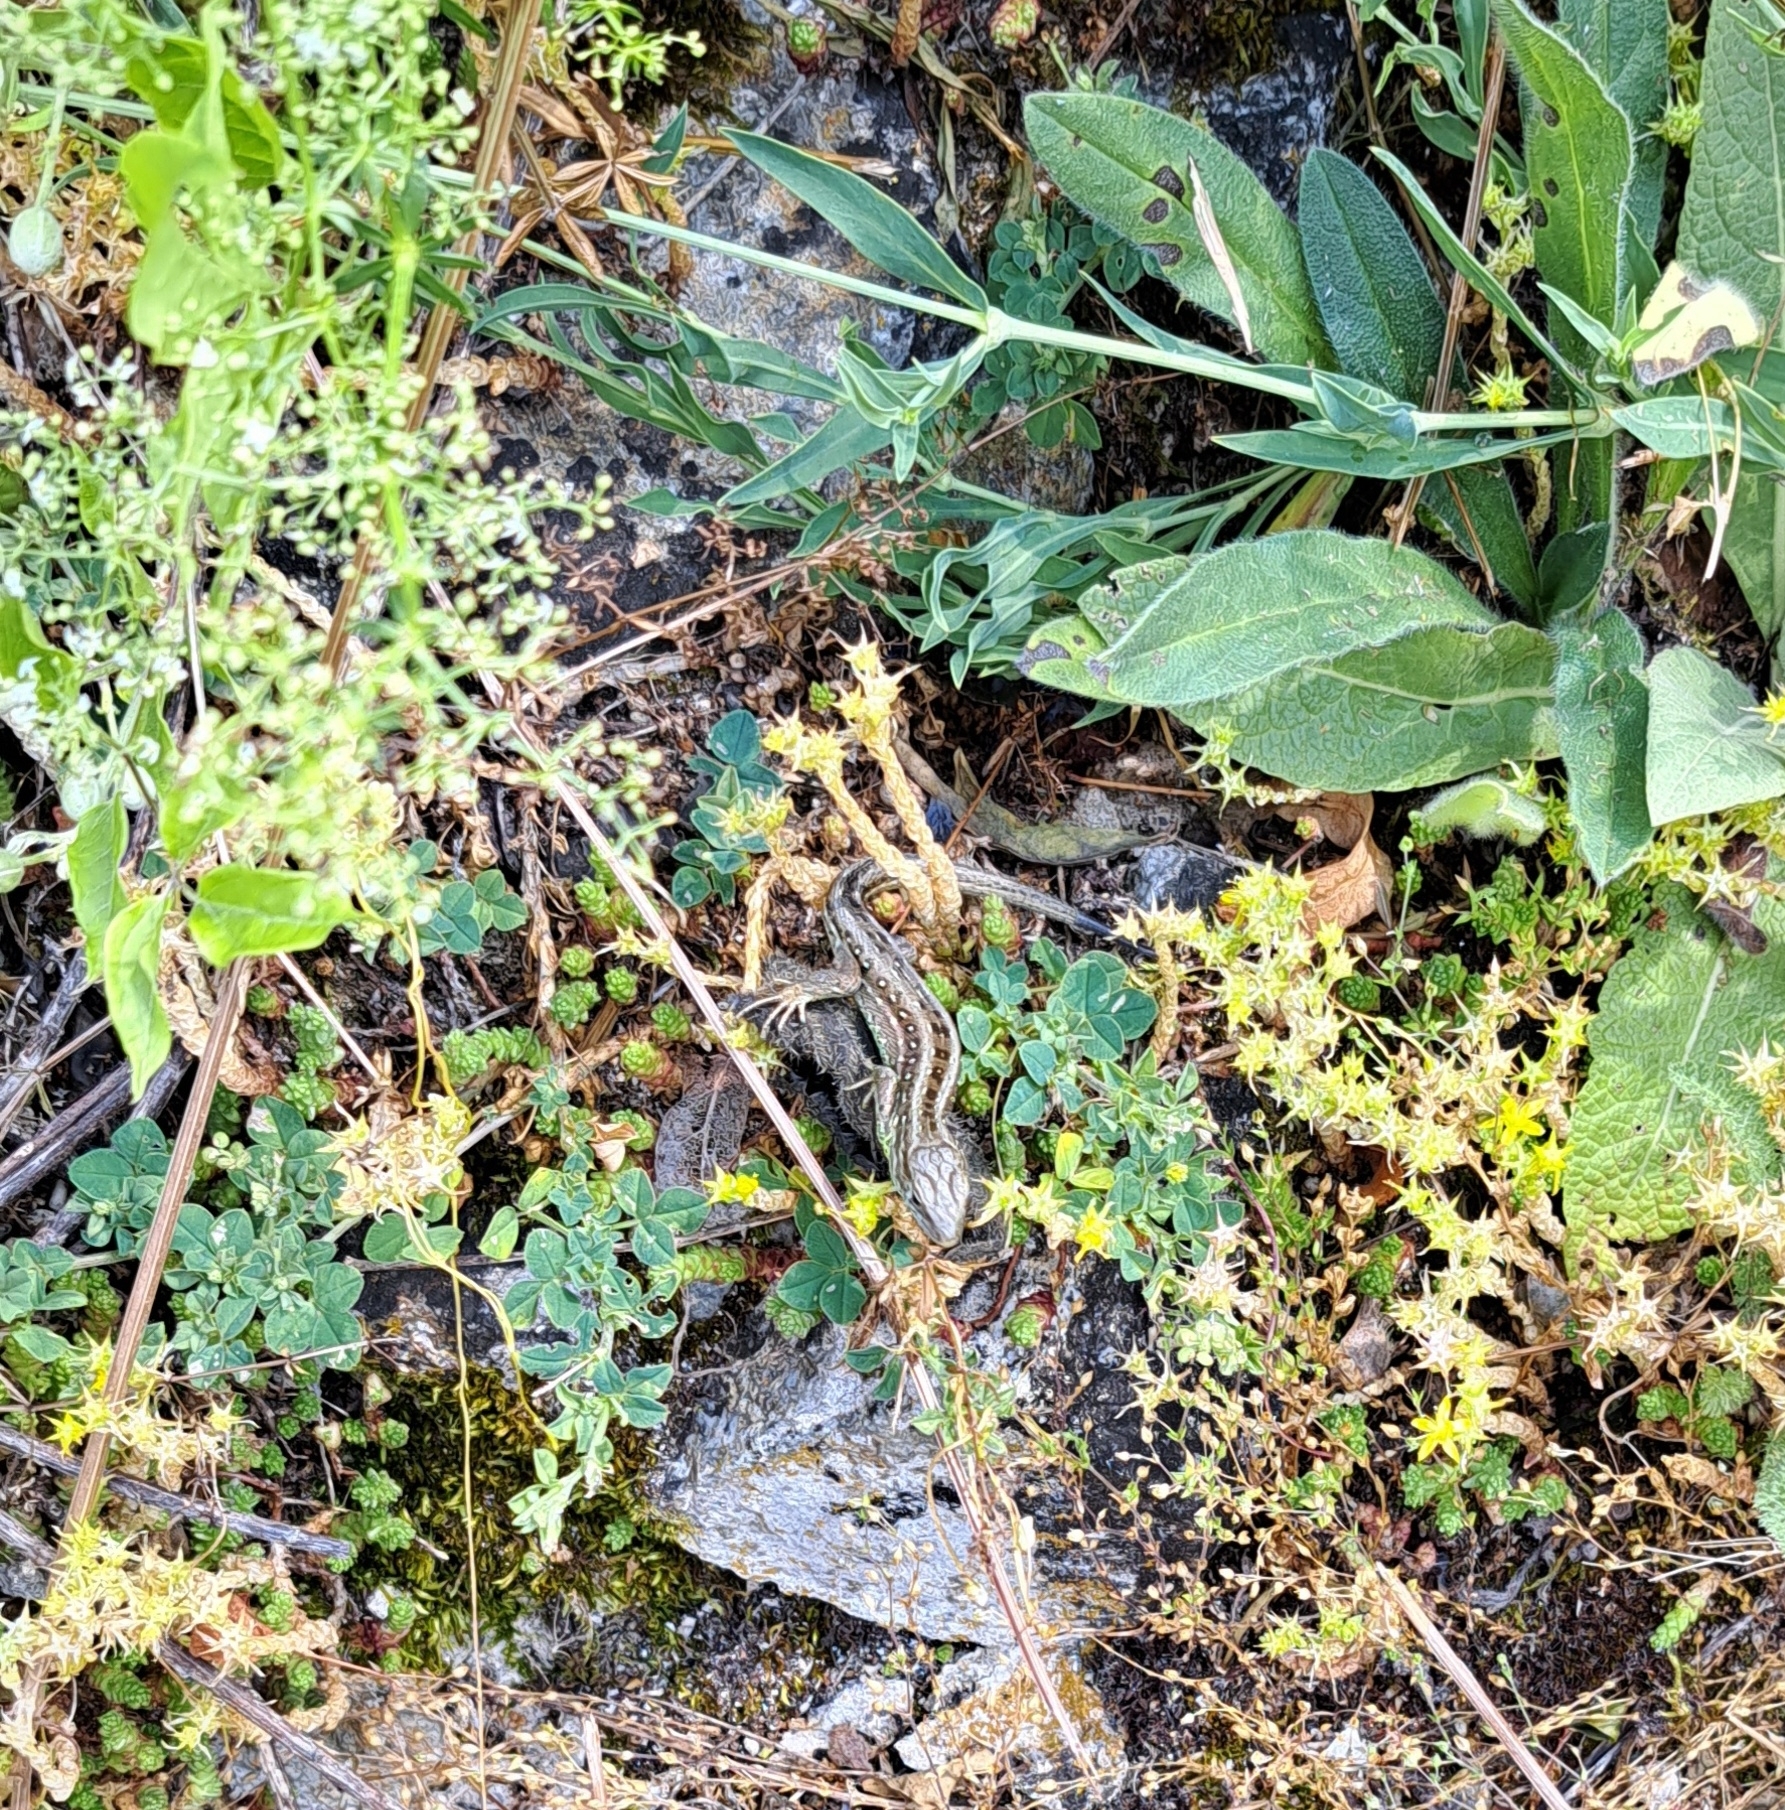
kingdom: Animalia
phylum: Chordata
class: Squamata
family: Lacertidae
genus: Lacerta
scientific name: Lacerta agilis
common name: Sand lizard
